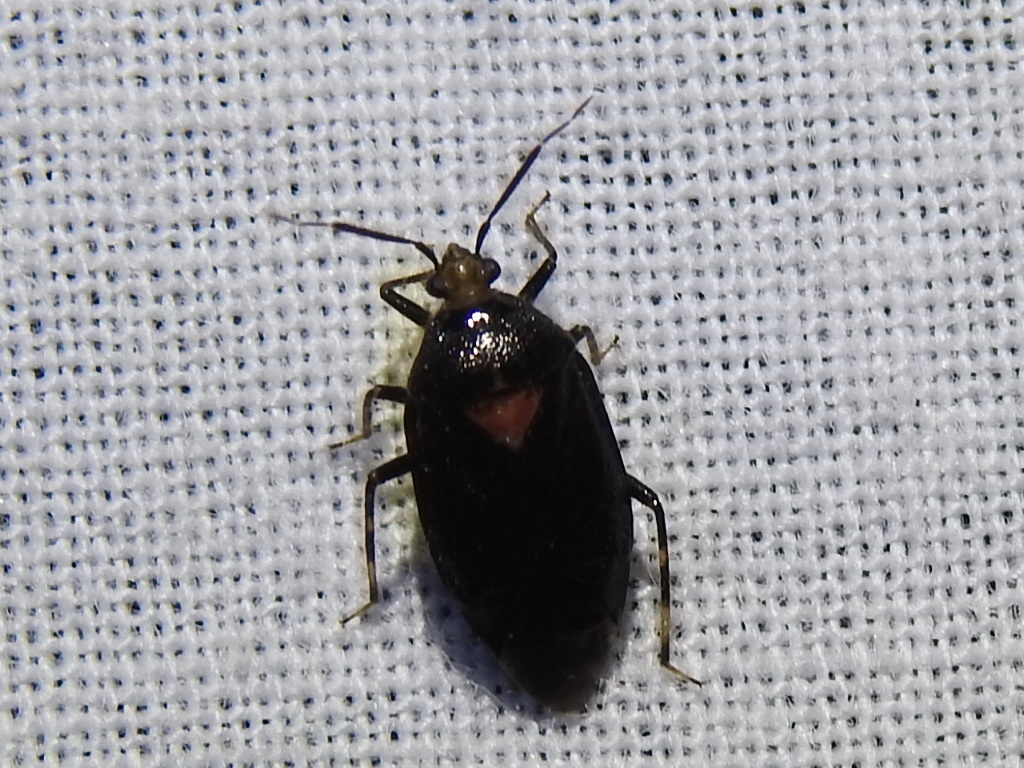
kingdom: Animalia
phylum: Arthropoda
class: Insecta
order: Hemiptera
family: Miridae
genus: Deraeocoris
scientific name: Deraeocoris sayi
